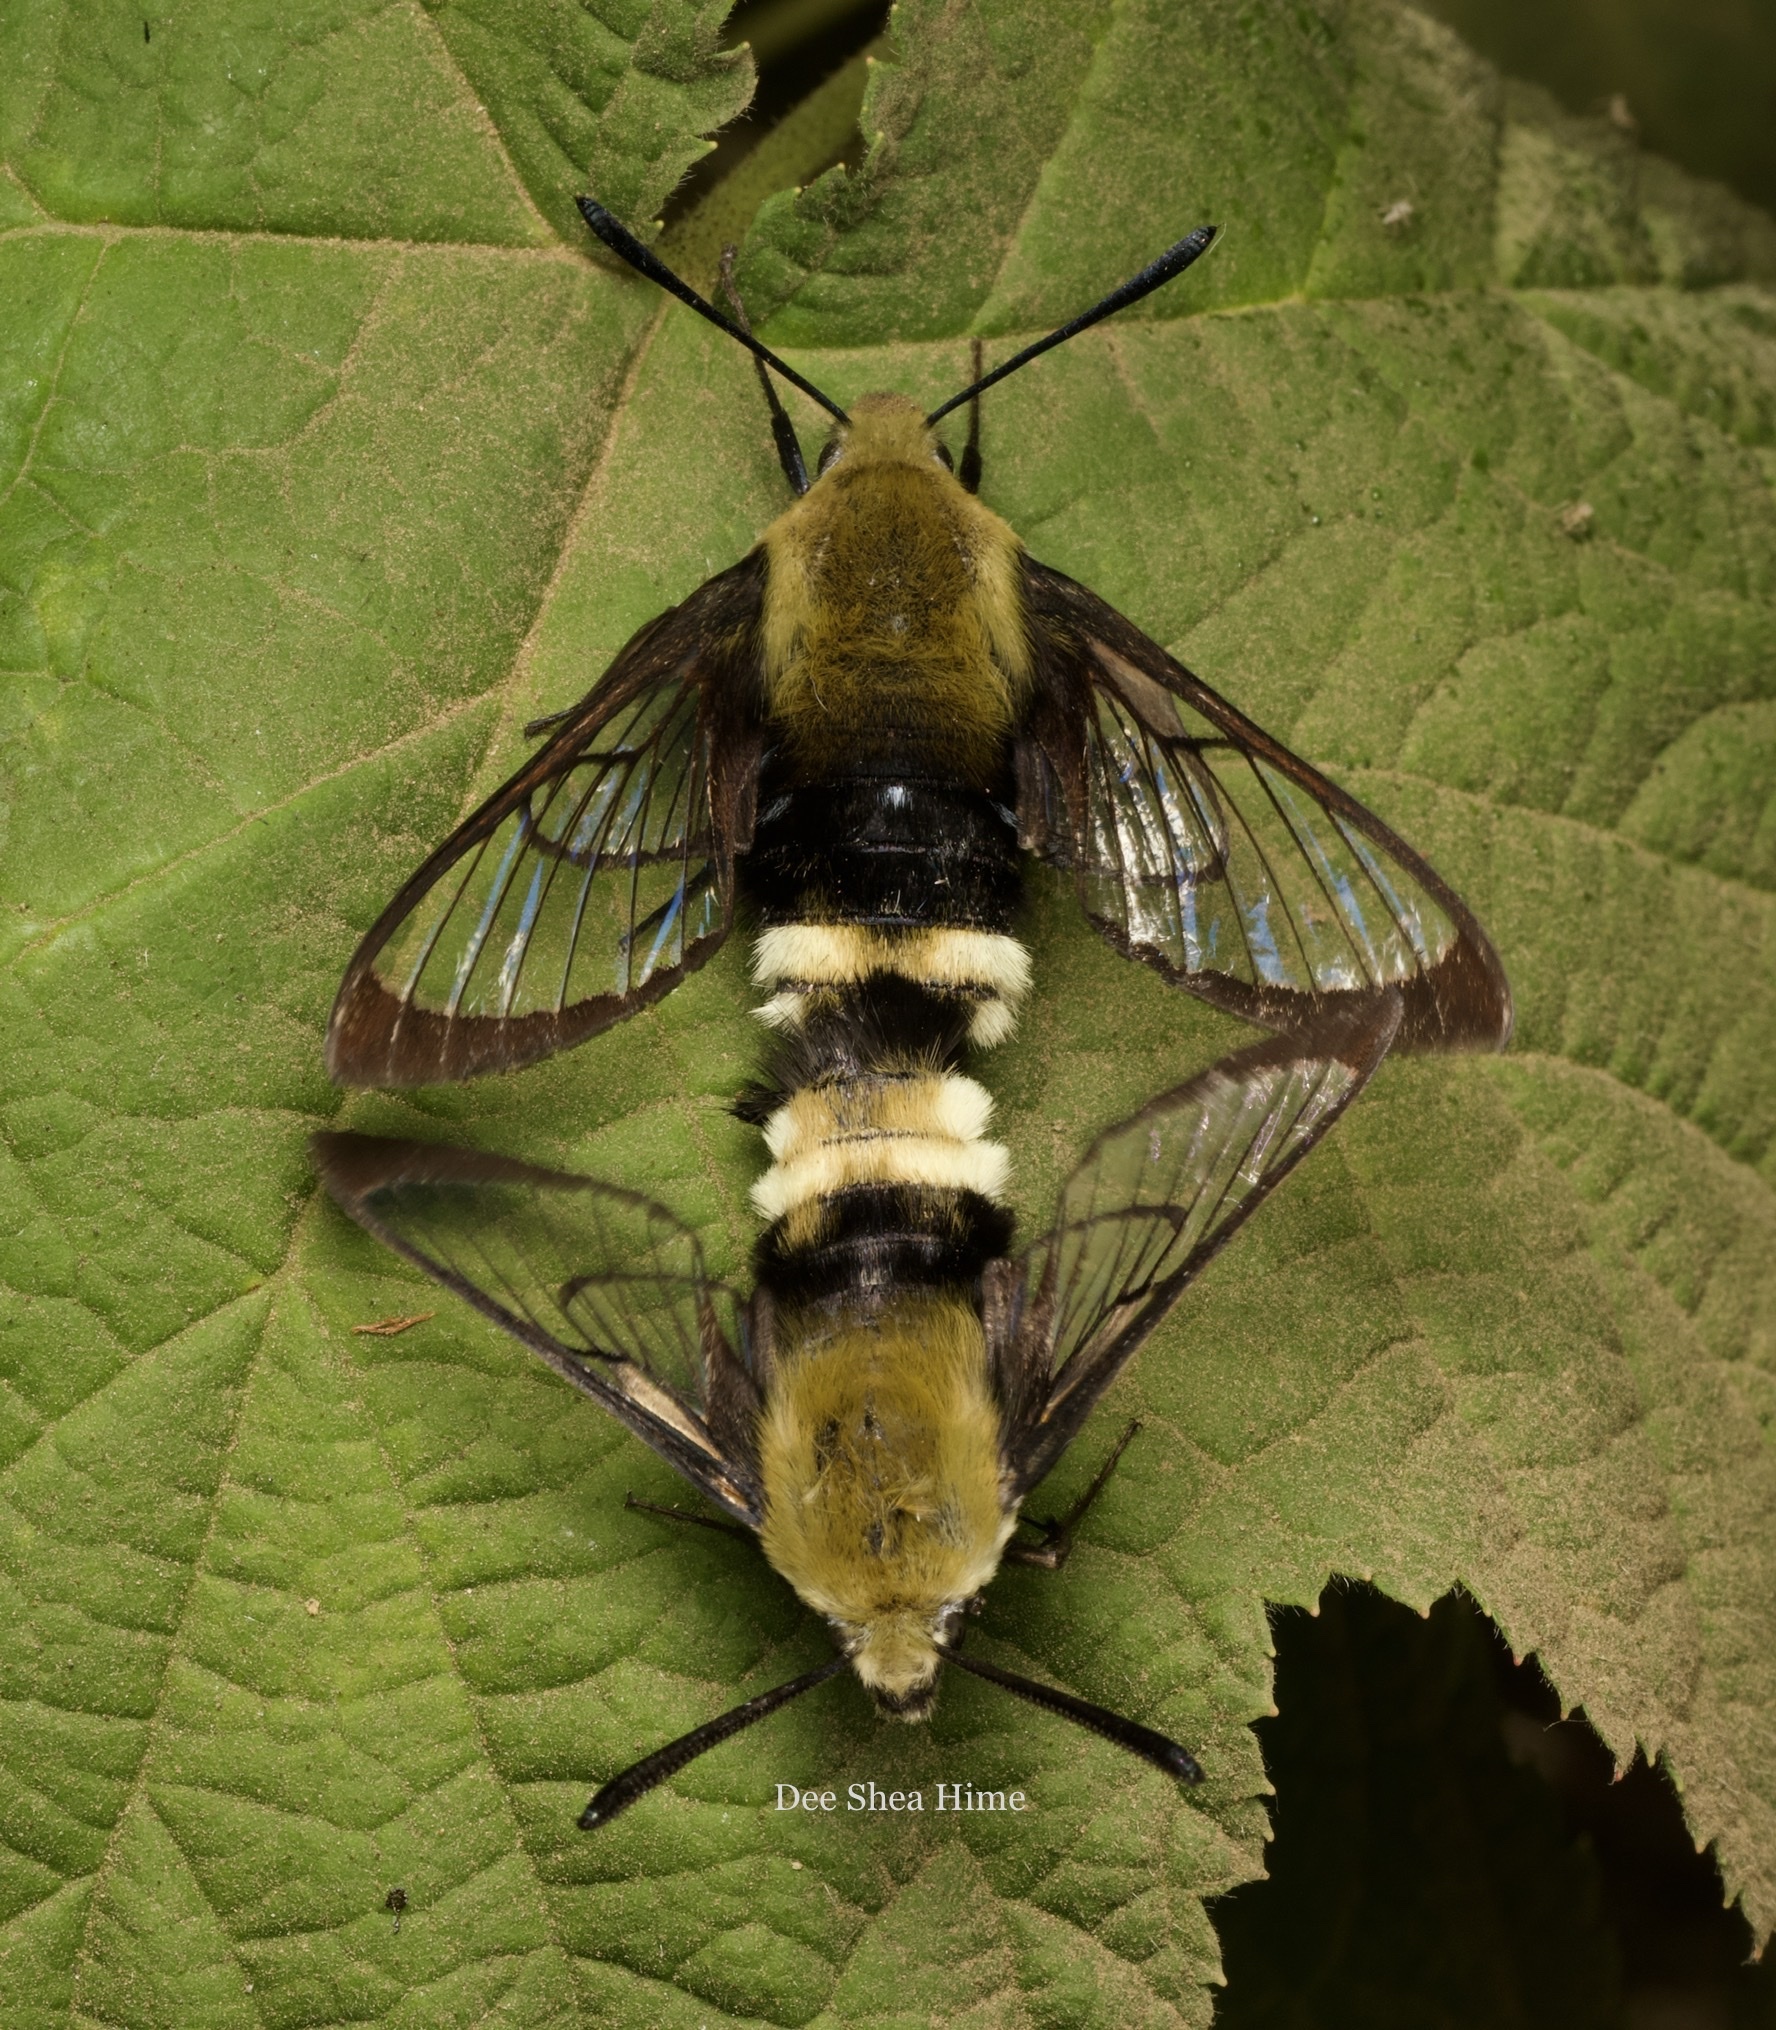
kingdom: Animalia
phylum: Arthropoda
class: Insecta
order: Lepidoptera
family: Sphingidae
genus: Hemaris
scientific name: Hemaris thetis
